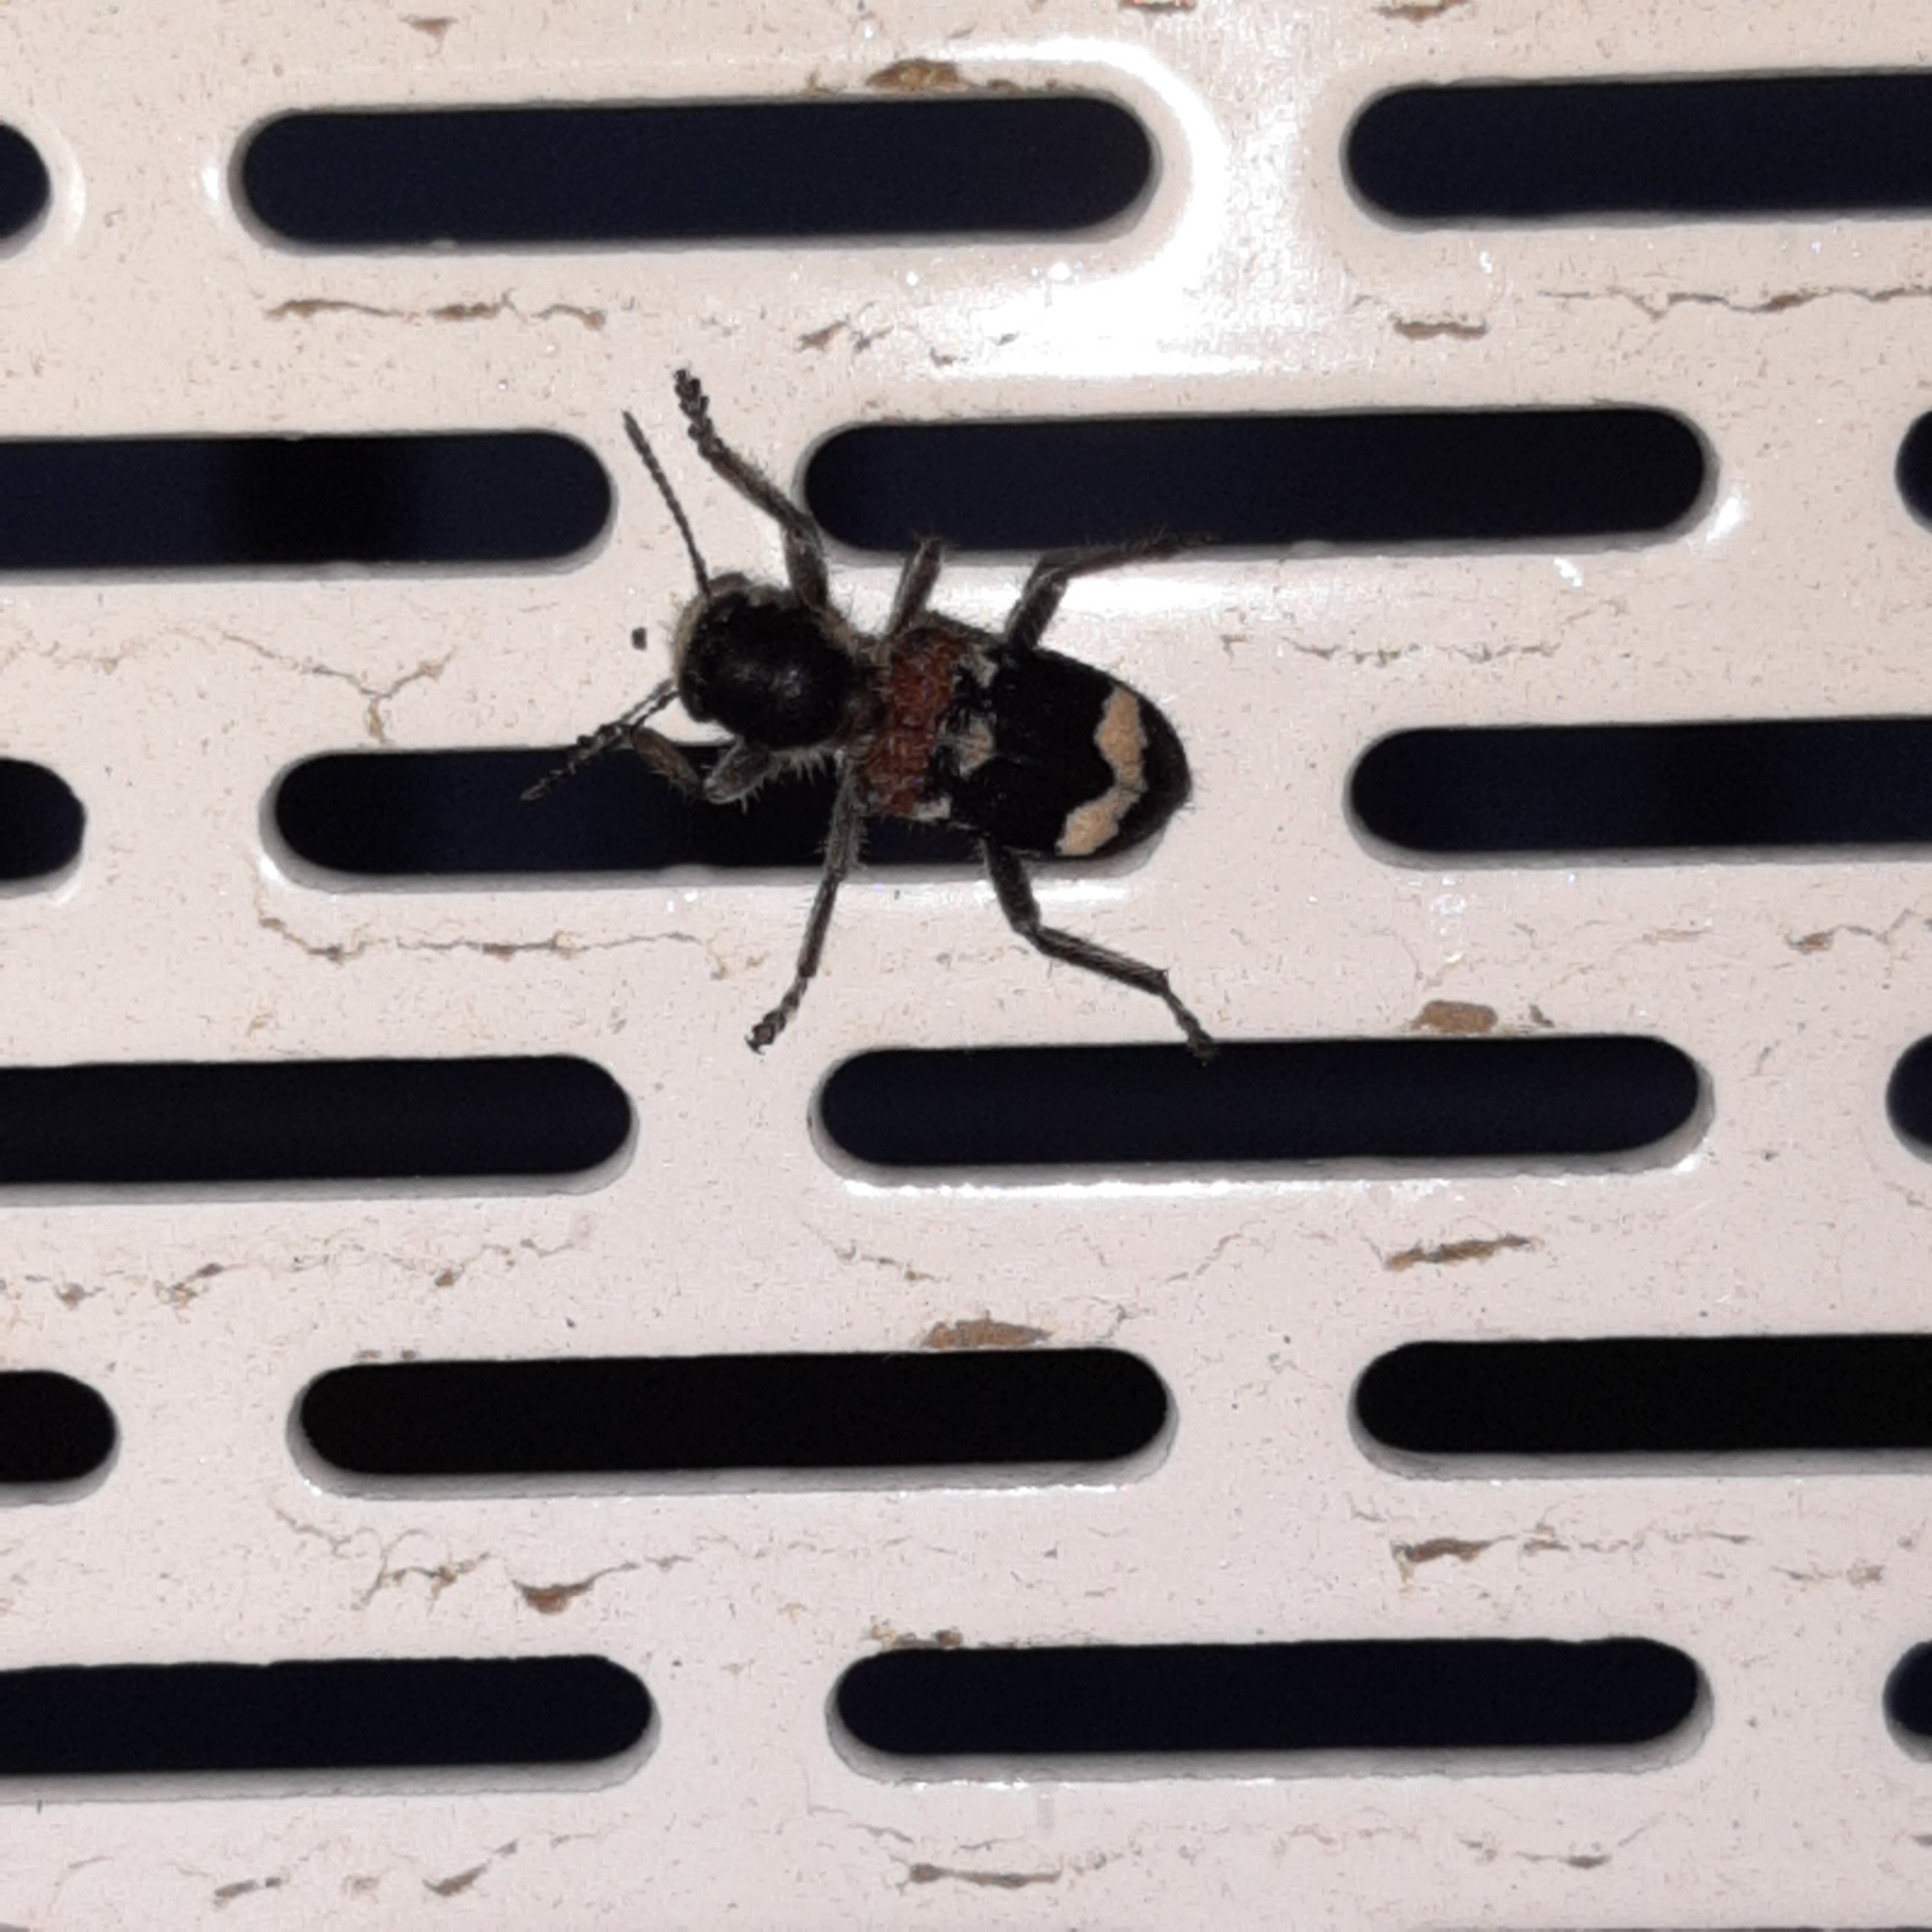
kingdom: Animalia
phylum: Arthropoda
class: Insecta
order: Coleoptera
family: Cleridae
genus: Clerus
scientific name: Clerus mutillarius
